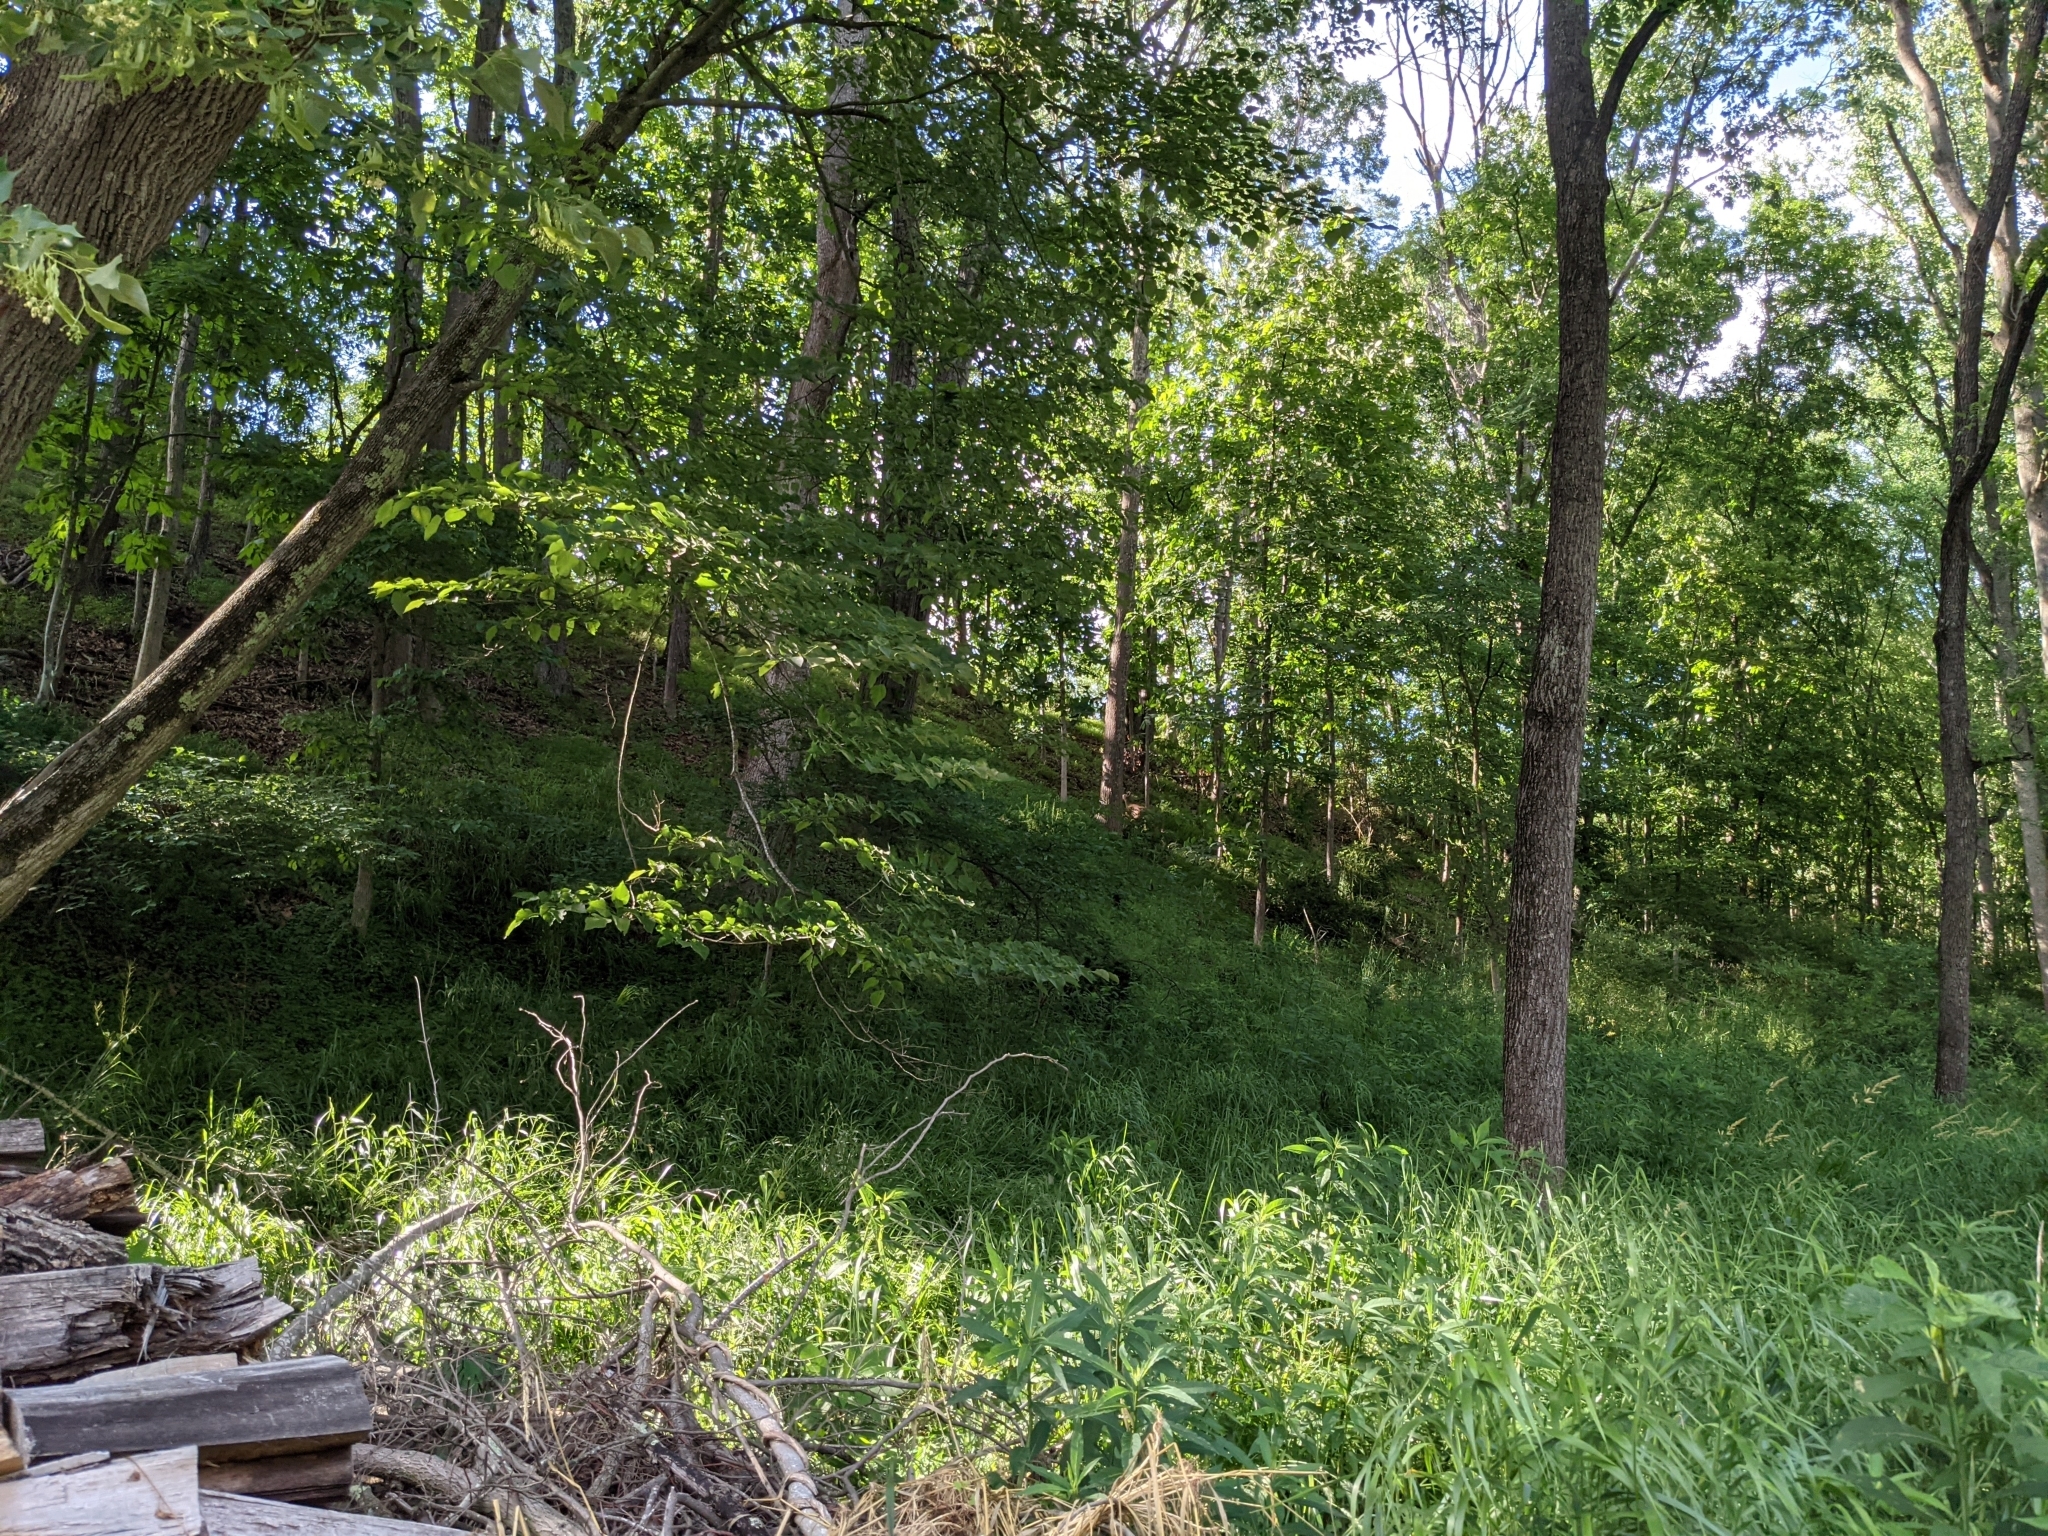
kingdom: Animalia
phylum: Chordata
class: Mammalia
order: Artiodactyla
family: Cervidae
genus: Odocoileus
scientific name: Odocoileus virginianus
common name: White-tailed deer
